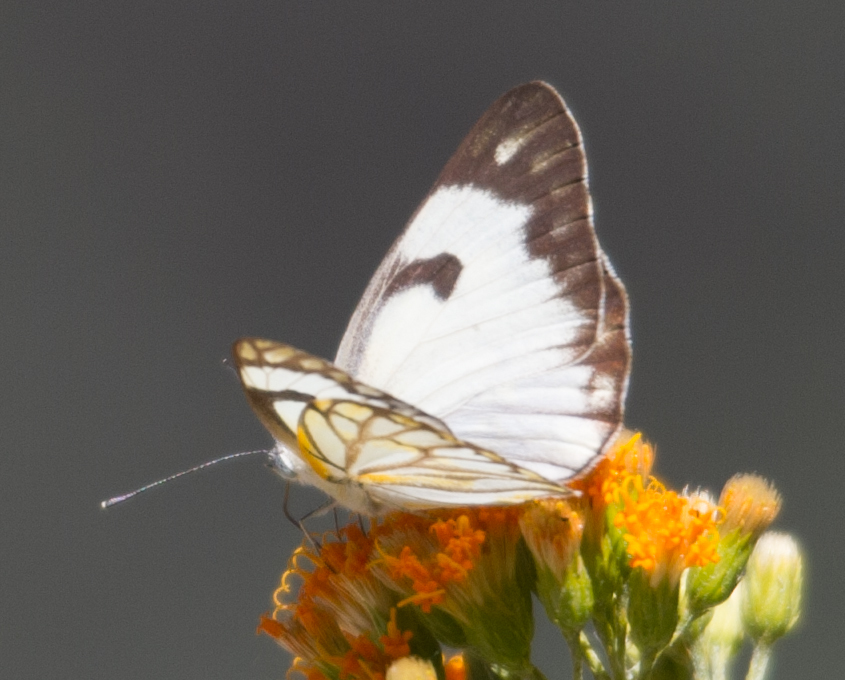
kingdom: Animalia
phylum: Arthropoda
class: Insecta
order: Lepidoptera
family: Pieridae
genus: Belenois
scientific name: Belenois aurota
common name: Brown-veined white
